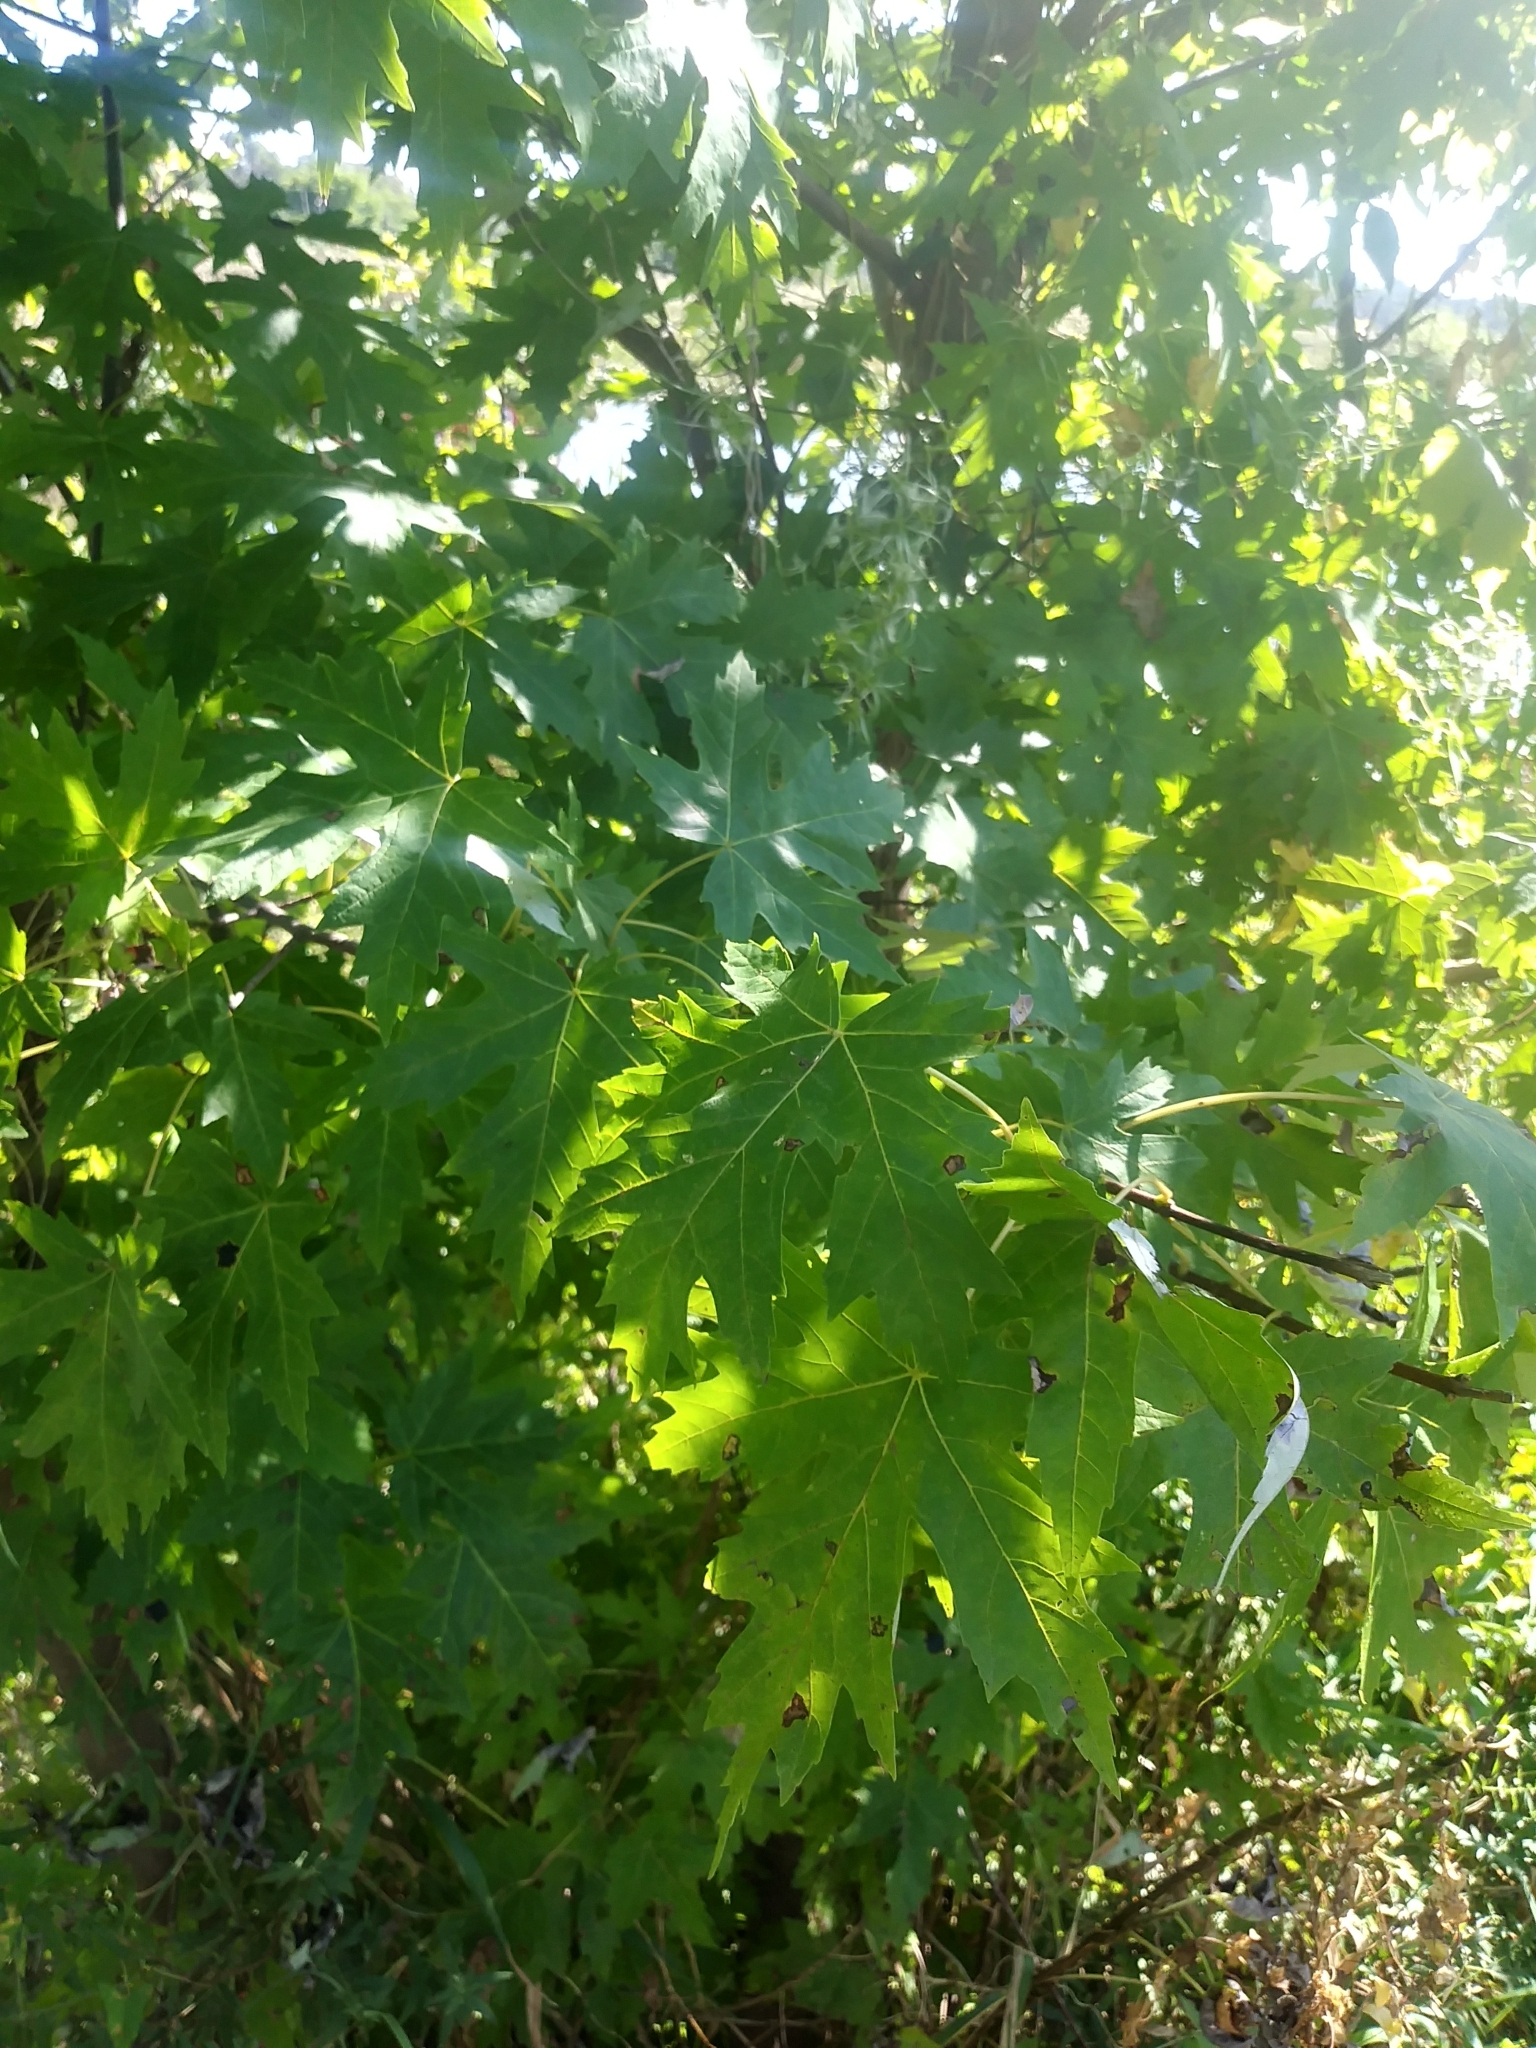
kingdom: Plantae
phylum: Tracheophyta
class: Magnoliopsida
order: Sapindales
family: Sapindaceae
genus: Acer
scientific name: Acer saccharinum
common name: Silver maple
